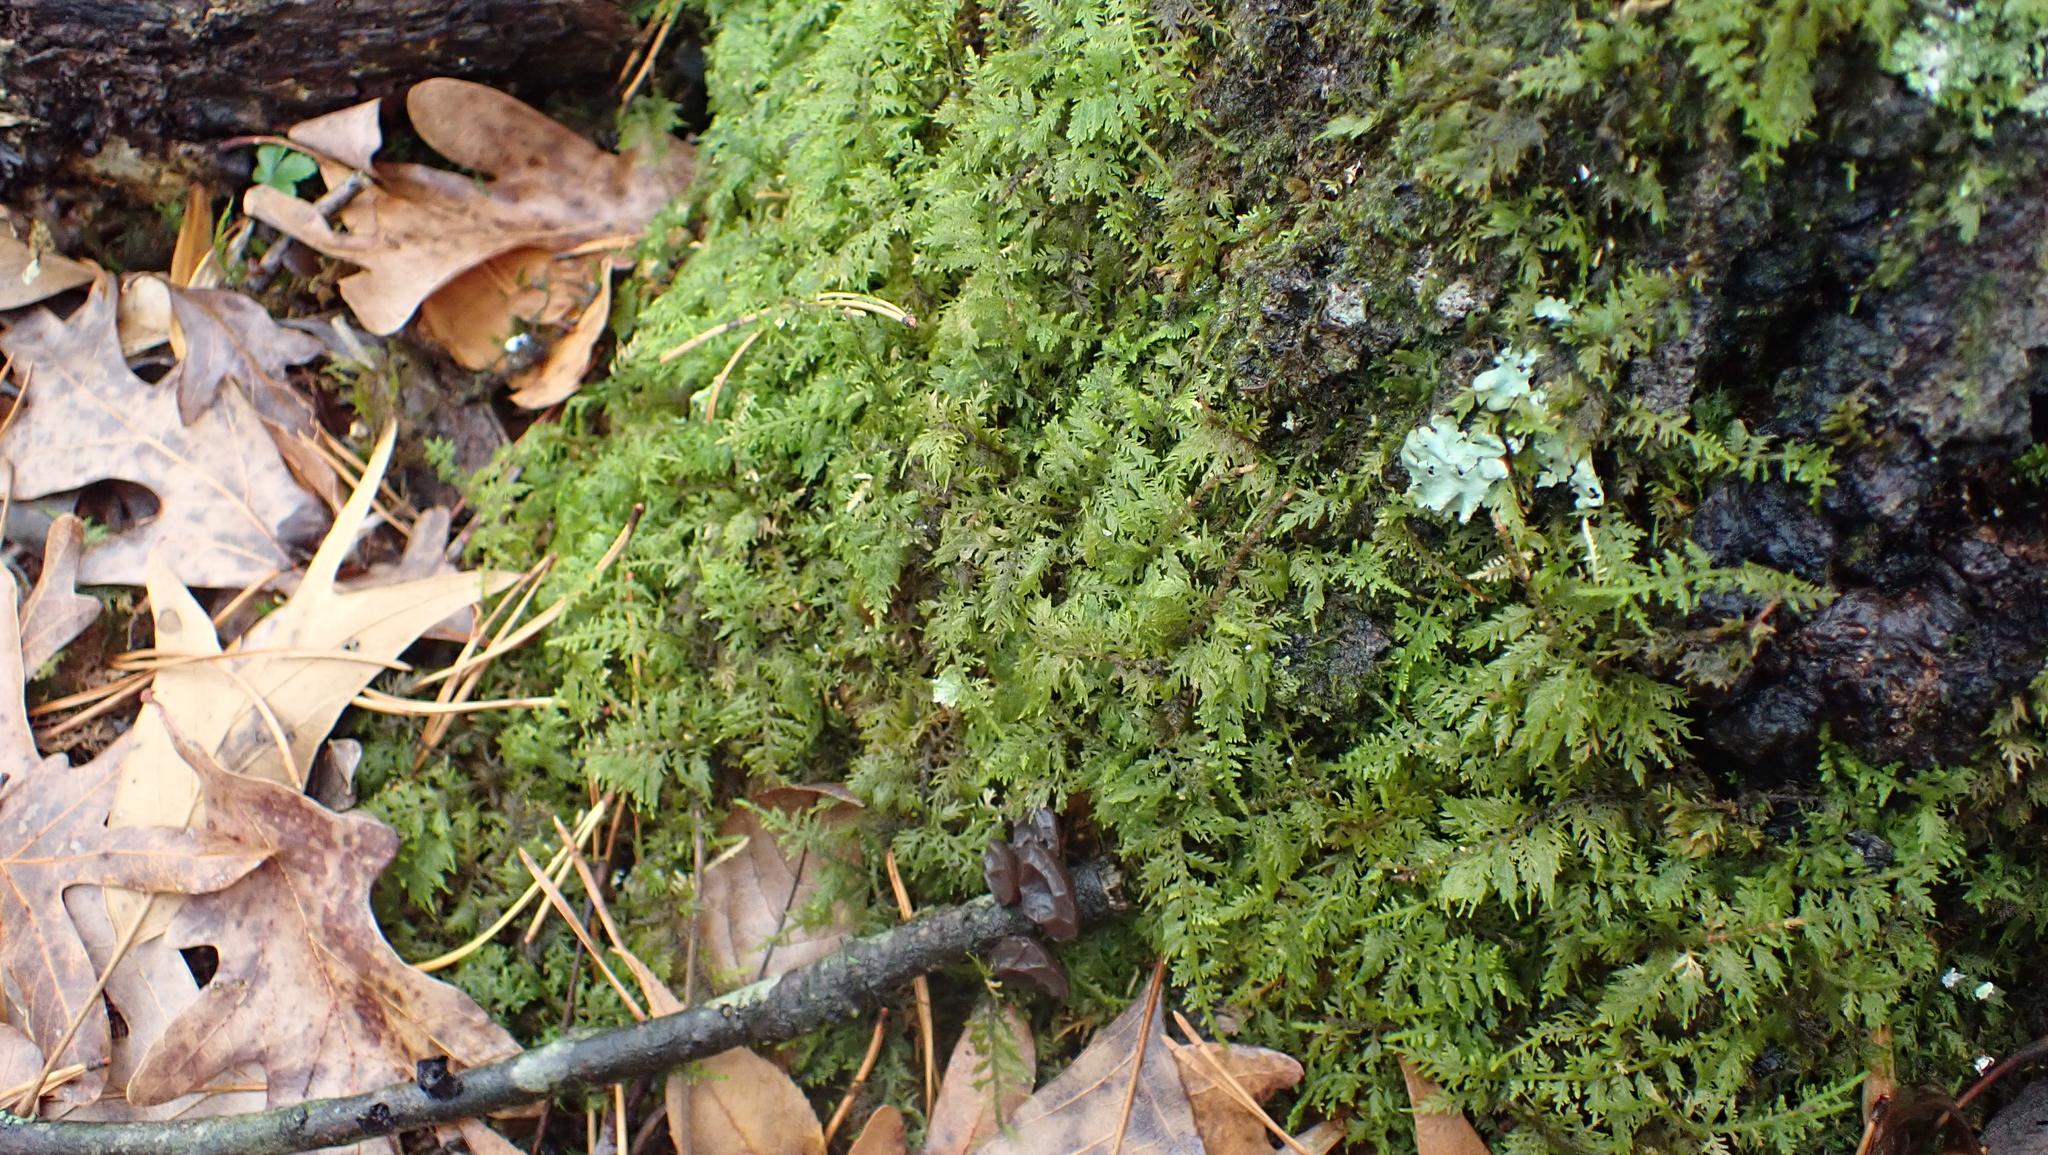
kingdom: Plantae
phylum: Bryophyta
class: Bryopsida
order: Hypnales
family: Thuidiaceae
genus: Thuidium
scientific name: Thuidium delicatulum
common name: Delicate fern moss
